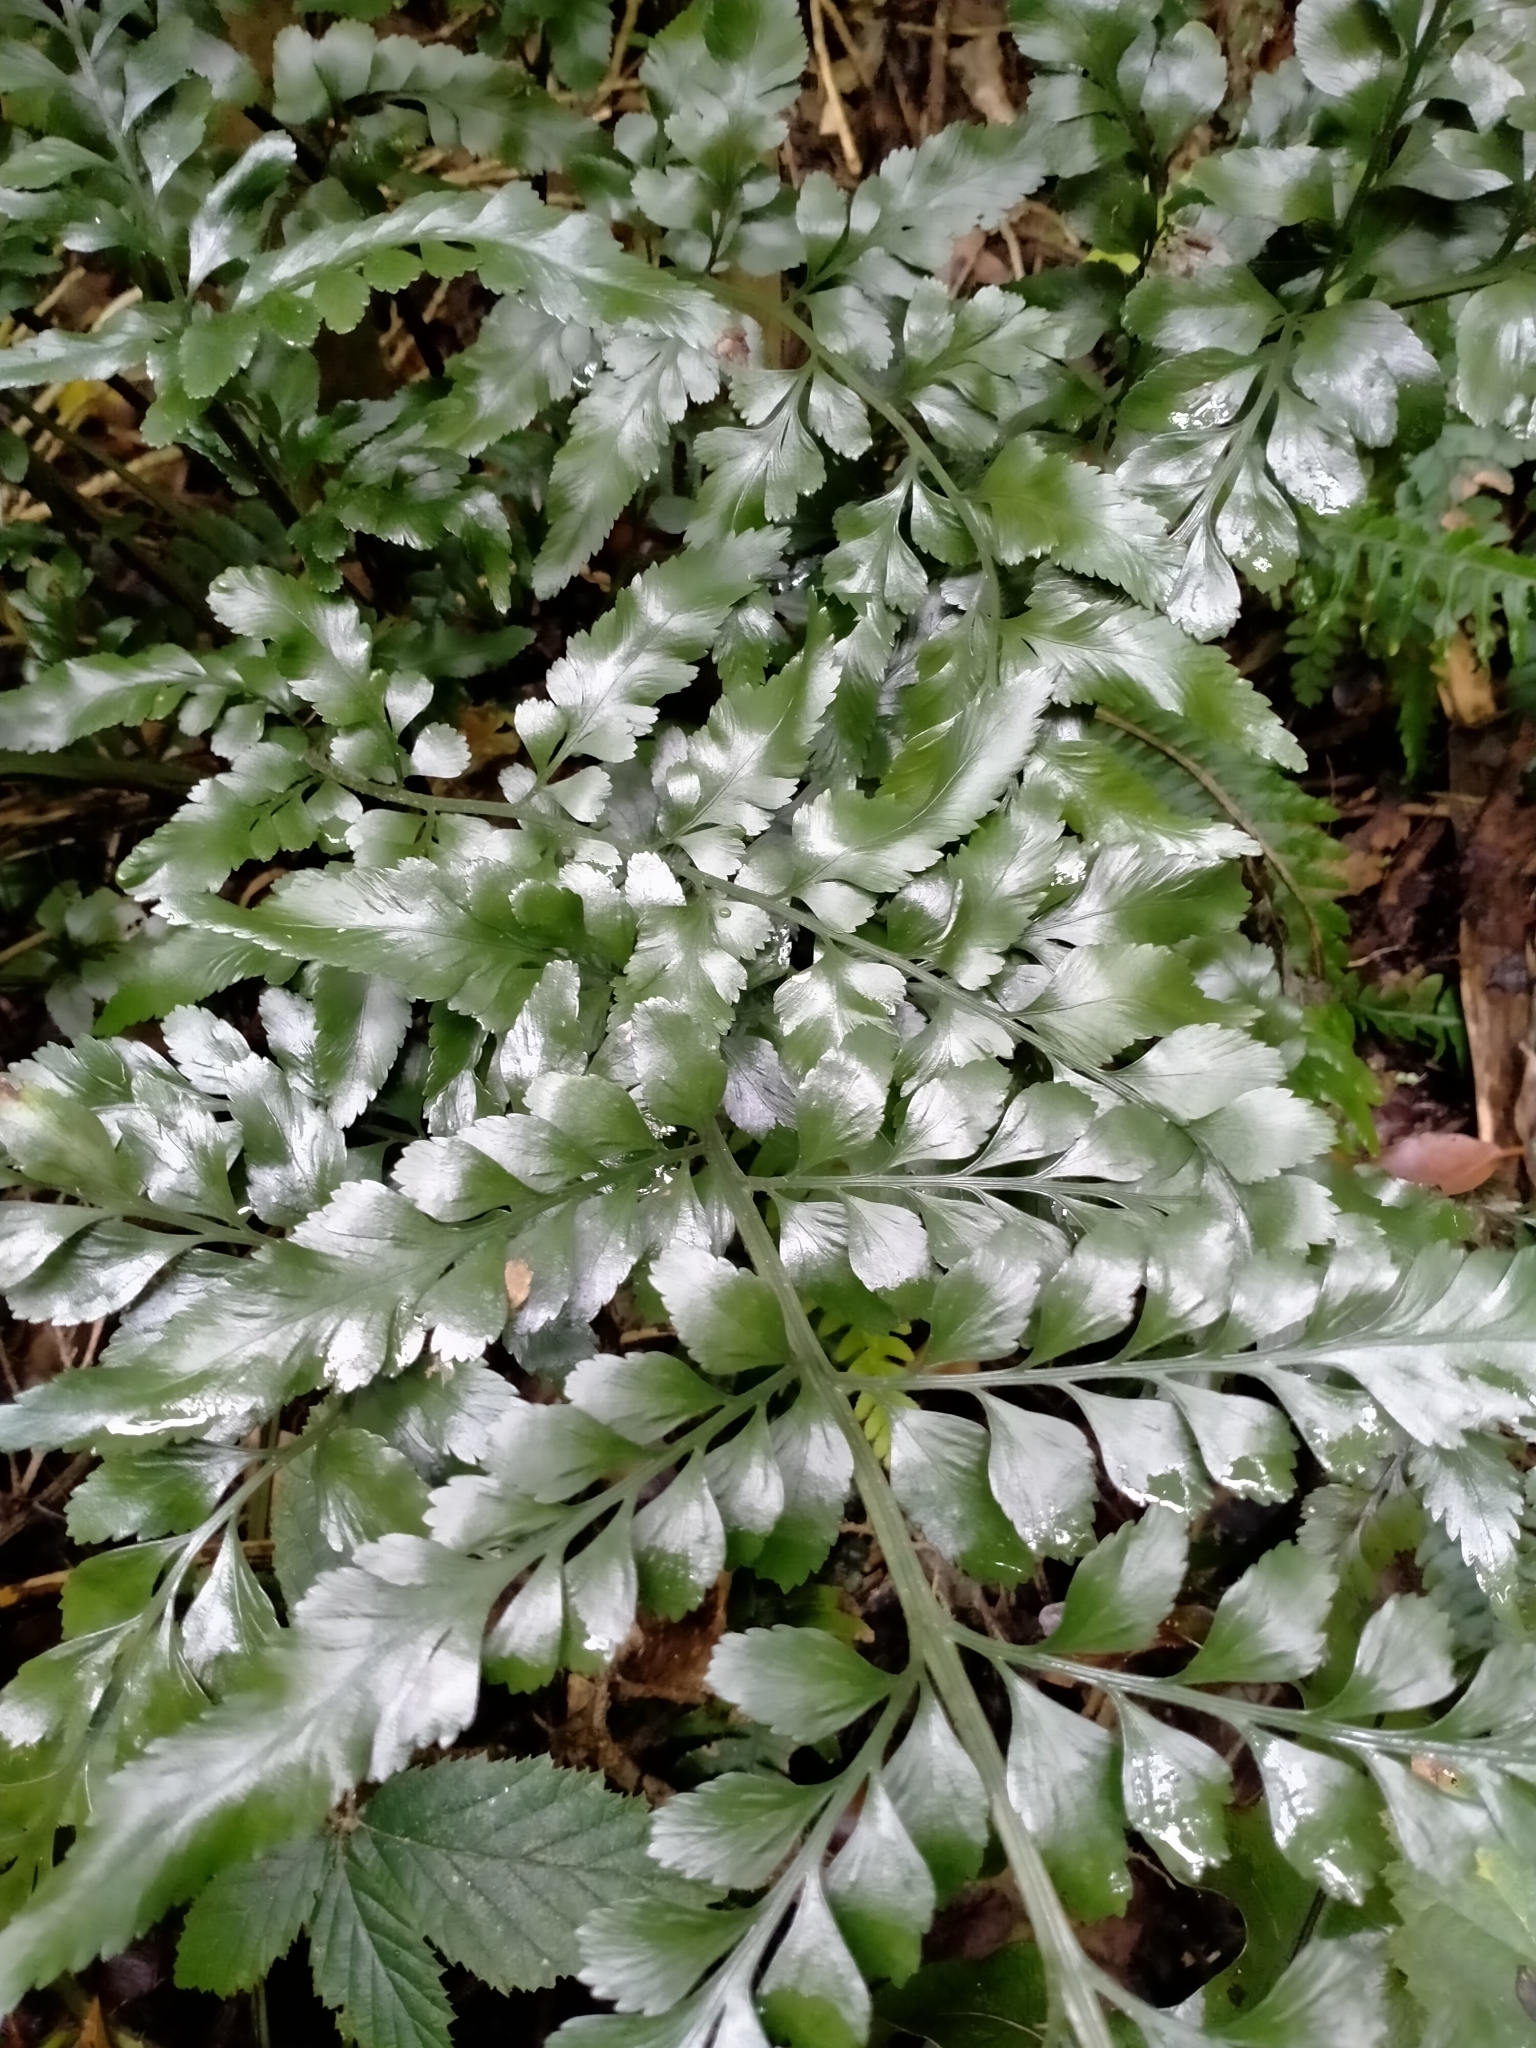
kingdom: Plantae
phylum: Tracheophyta
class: Polypodiopsida
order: Polypodiales
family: Aspleniaceae
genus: Asplenium
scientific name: Asplenium lyallii
